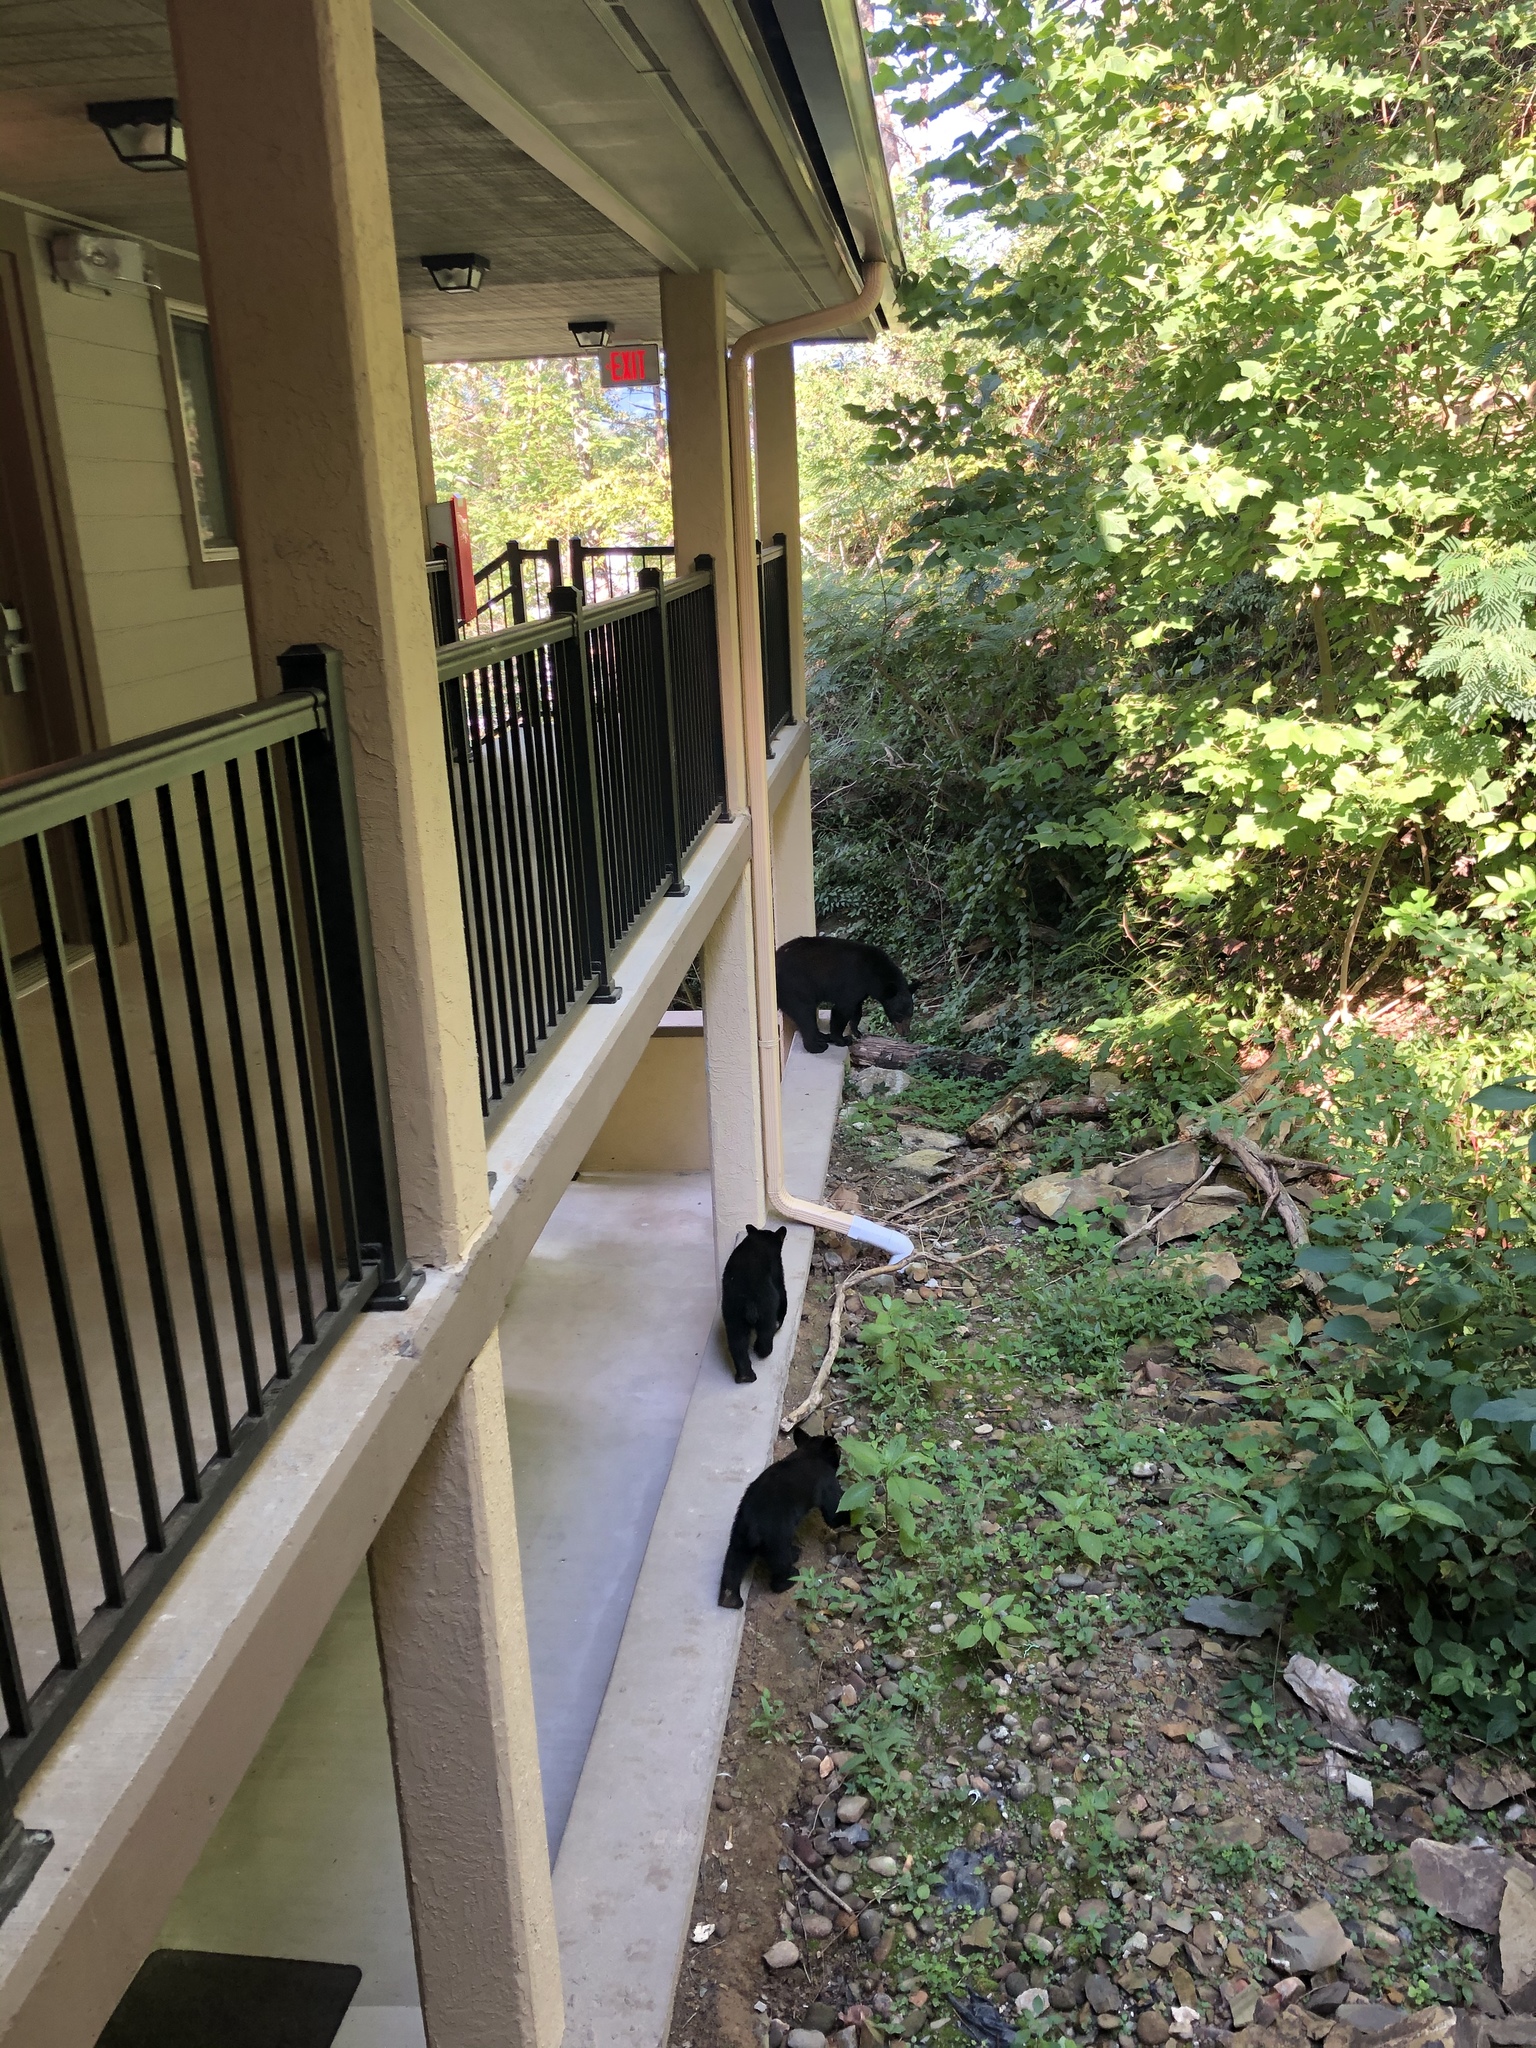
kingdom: Animalia
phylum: Chordata
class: Mammalia
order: Carnivora
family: Ursidae
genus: Ursus
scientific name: Ursus americanus
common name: American black bear
